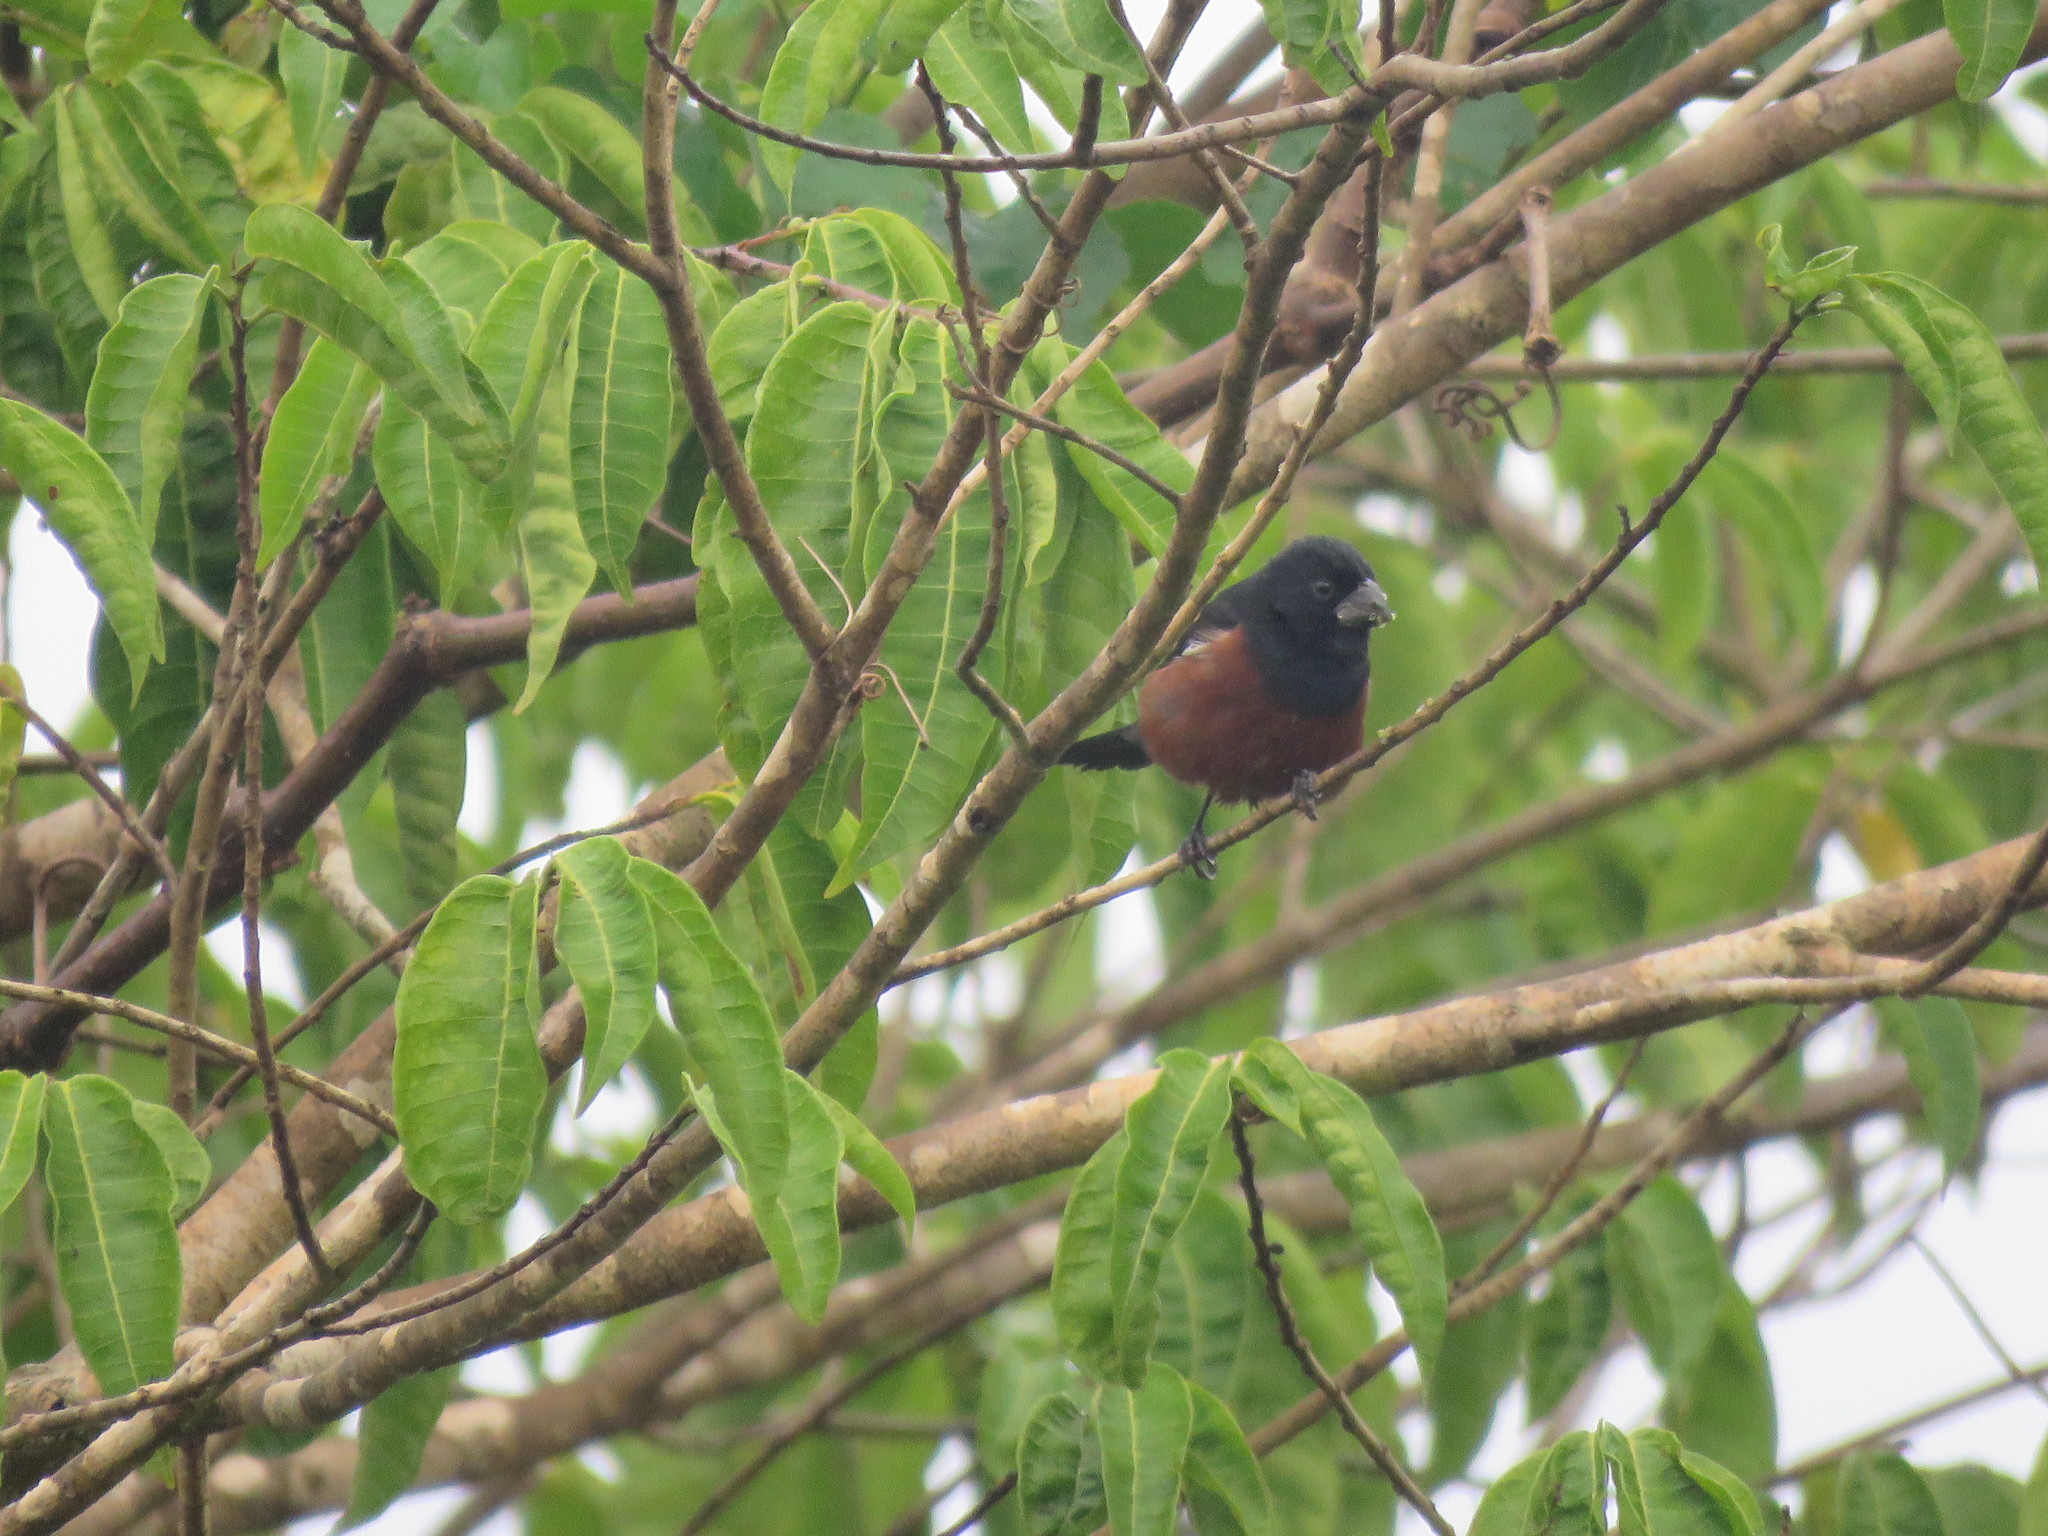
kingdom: Animalia
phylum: Chordata
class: Aves
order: Passeriformes
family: Thraupidae
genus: Sporophila
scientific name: Sporophila angolensis
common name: Chestnut-bellied seed-finch
